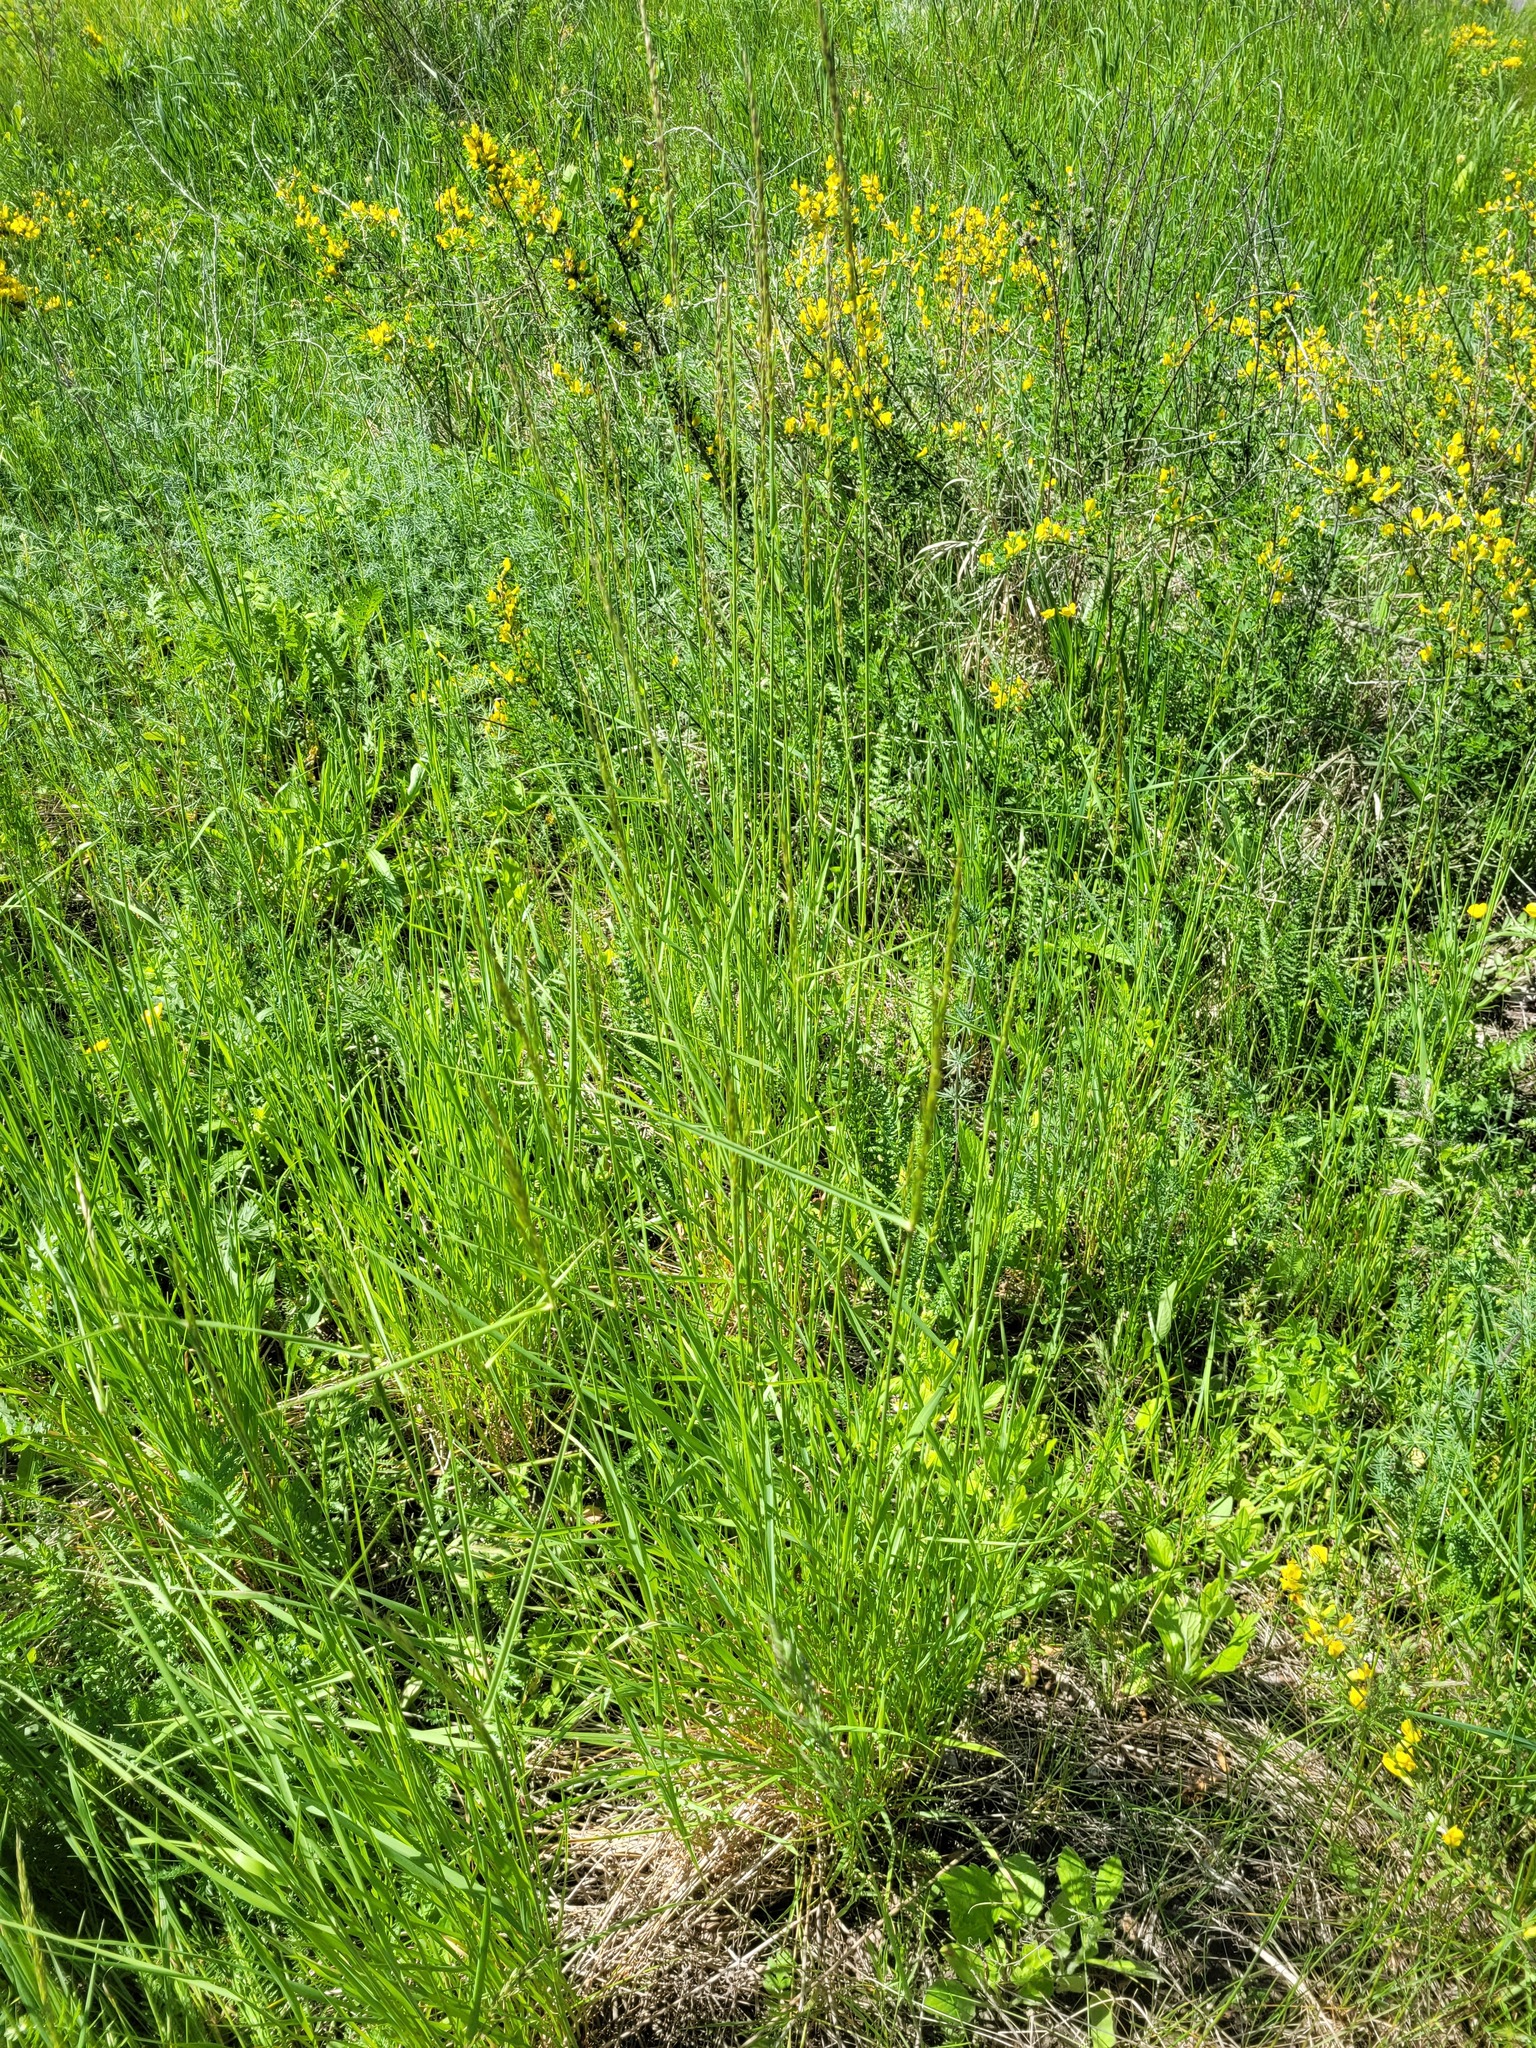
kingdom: Plantae
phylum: Tracheophyta
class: Liliopsida
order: Poales
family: Poaceae
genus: Arrhenatherum
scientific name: Arrhenatherum elatius
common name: Tall oatgrass
